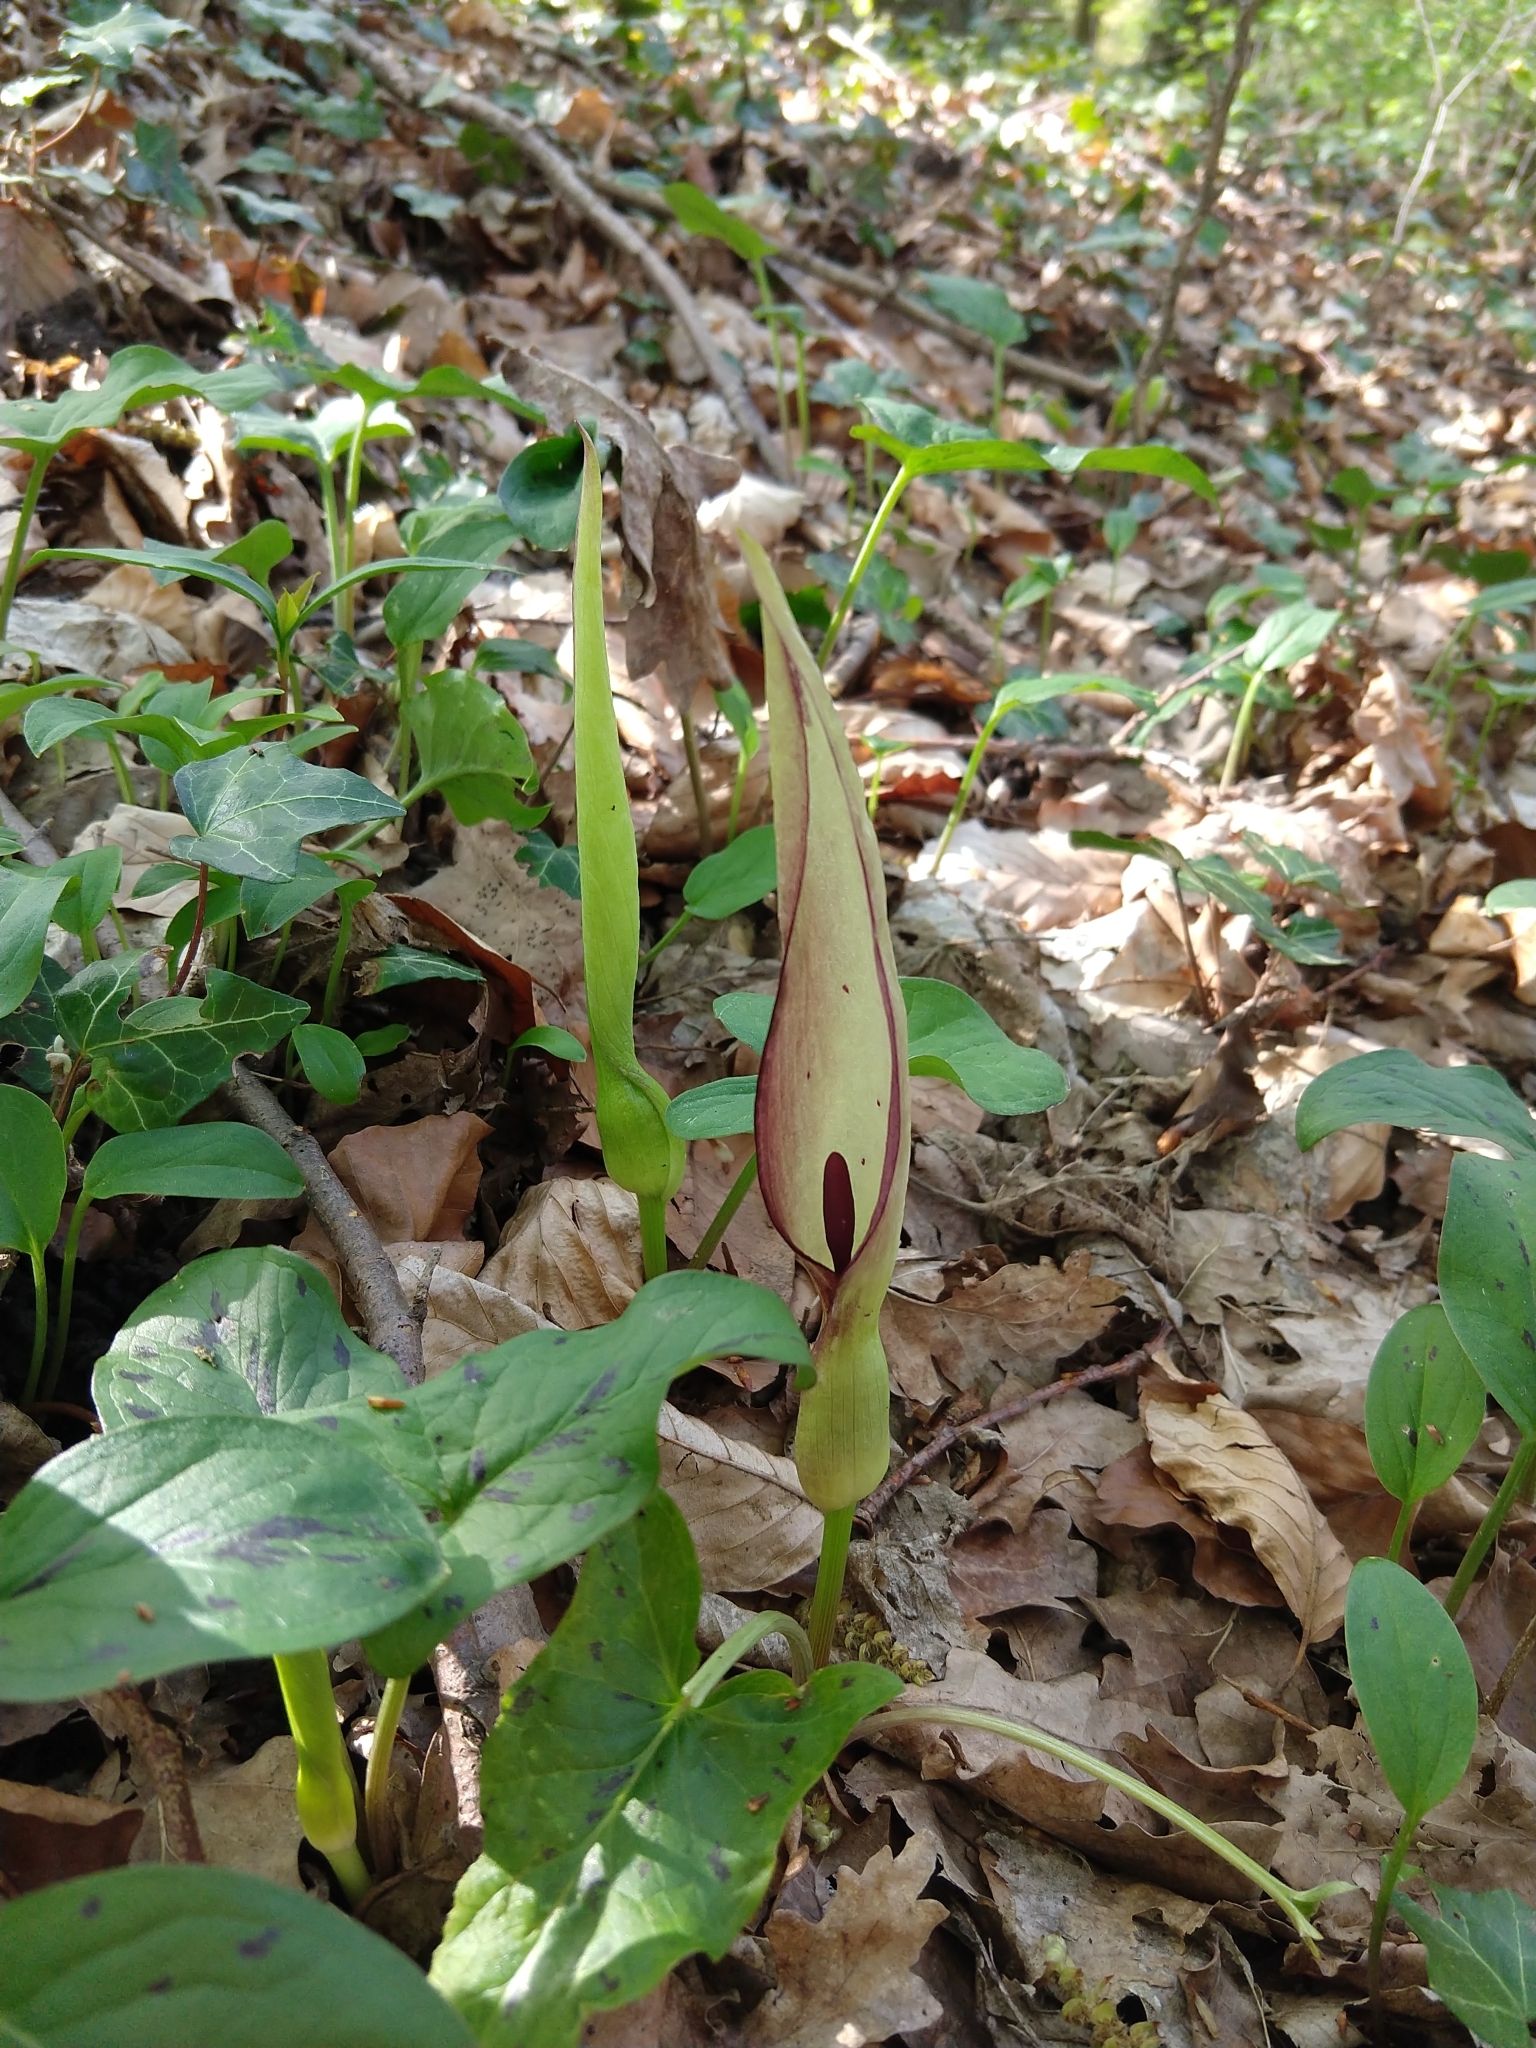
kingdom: Plantae
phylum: Tracheophyta
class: Liliopsida
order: Alismatales
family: Araceae
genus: Arum
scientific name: Arum maculatum
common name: Lords-and-ladies
